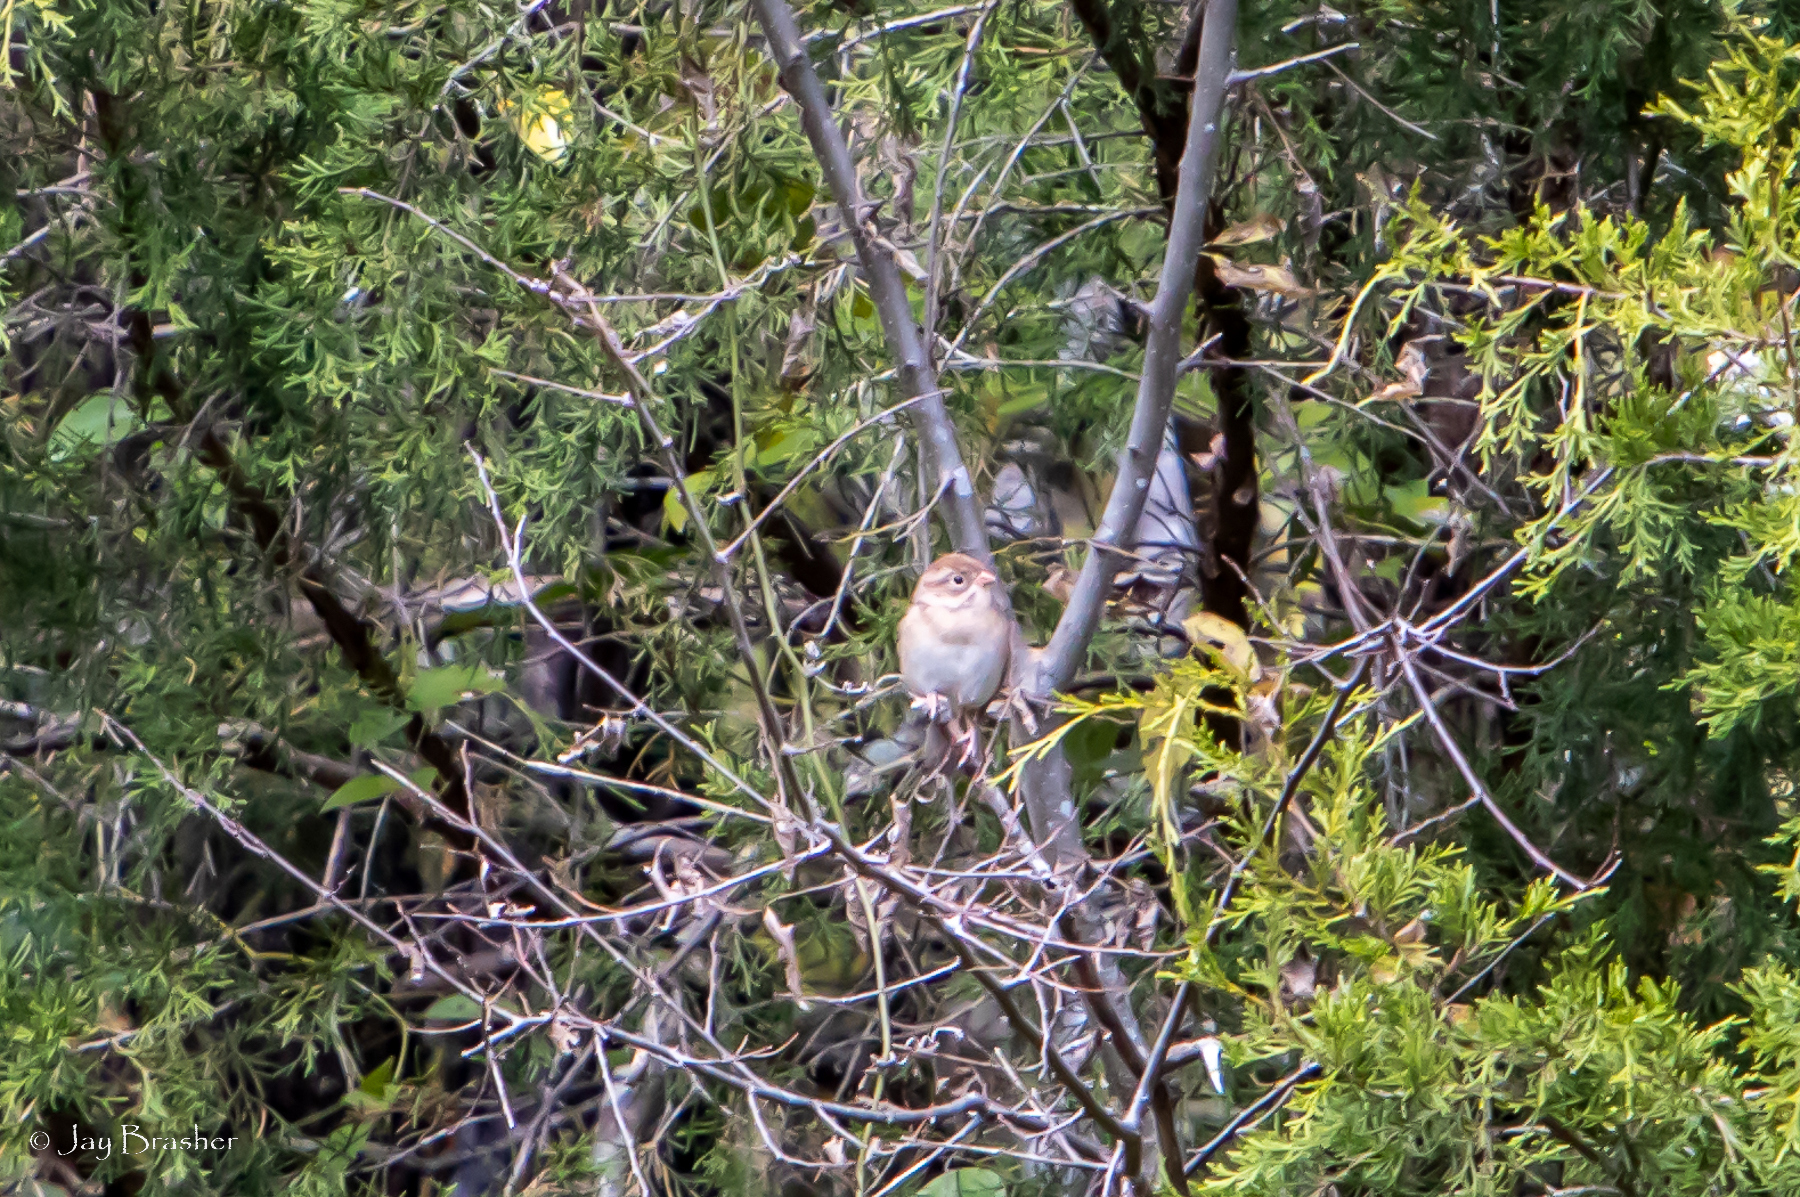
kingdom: Animalia
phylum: Chordata
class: Aves
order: Passeriformes
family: Passerellidae
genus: Spizella
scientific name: Spizella pusilla
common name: Field sparrow
